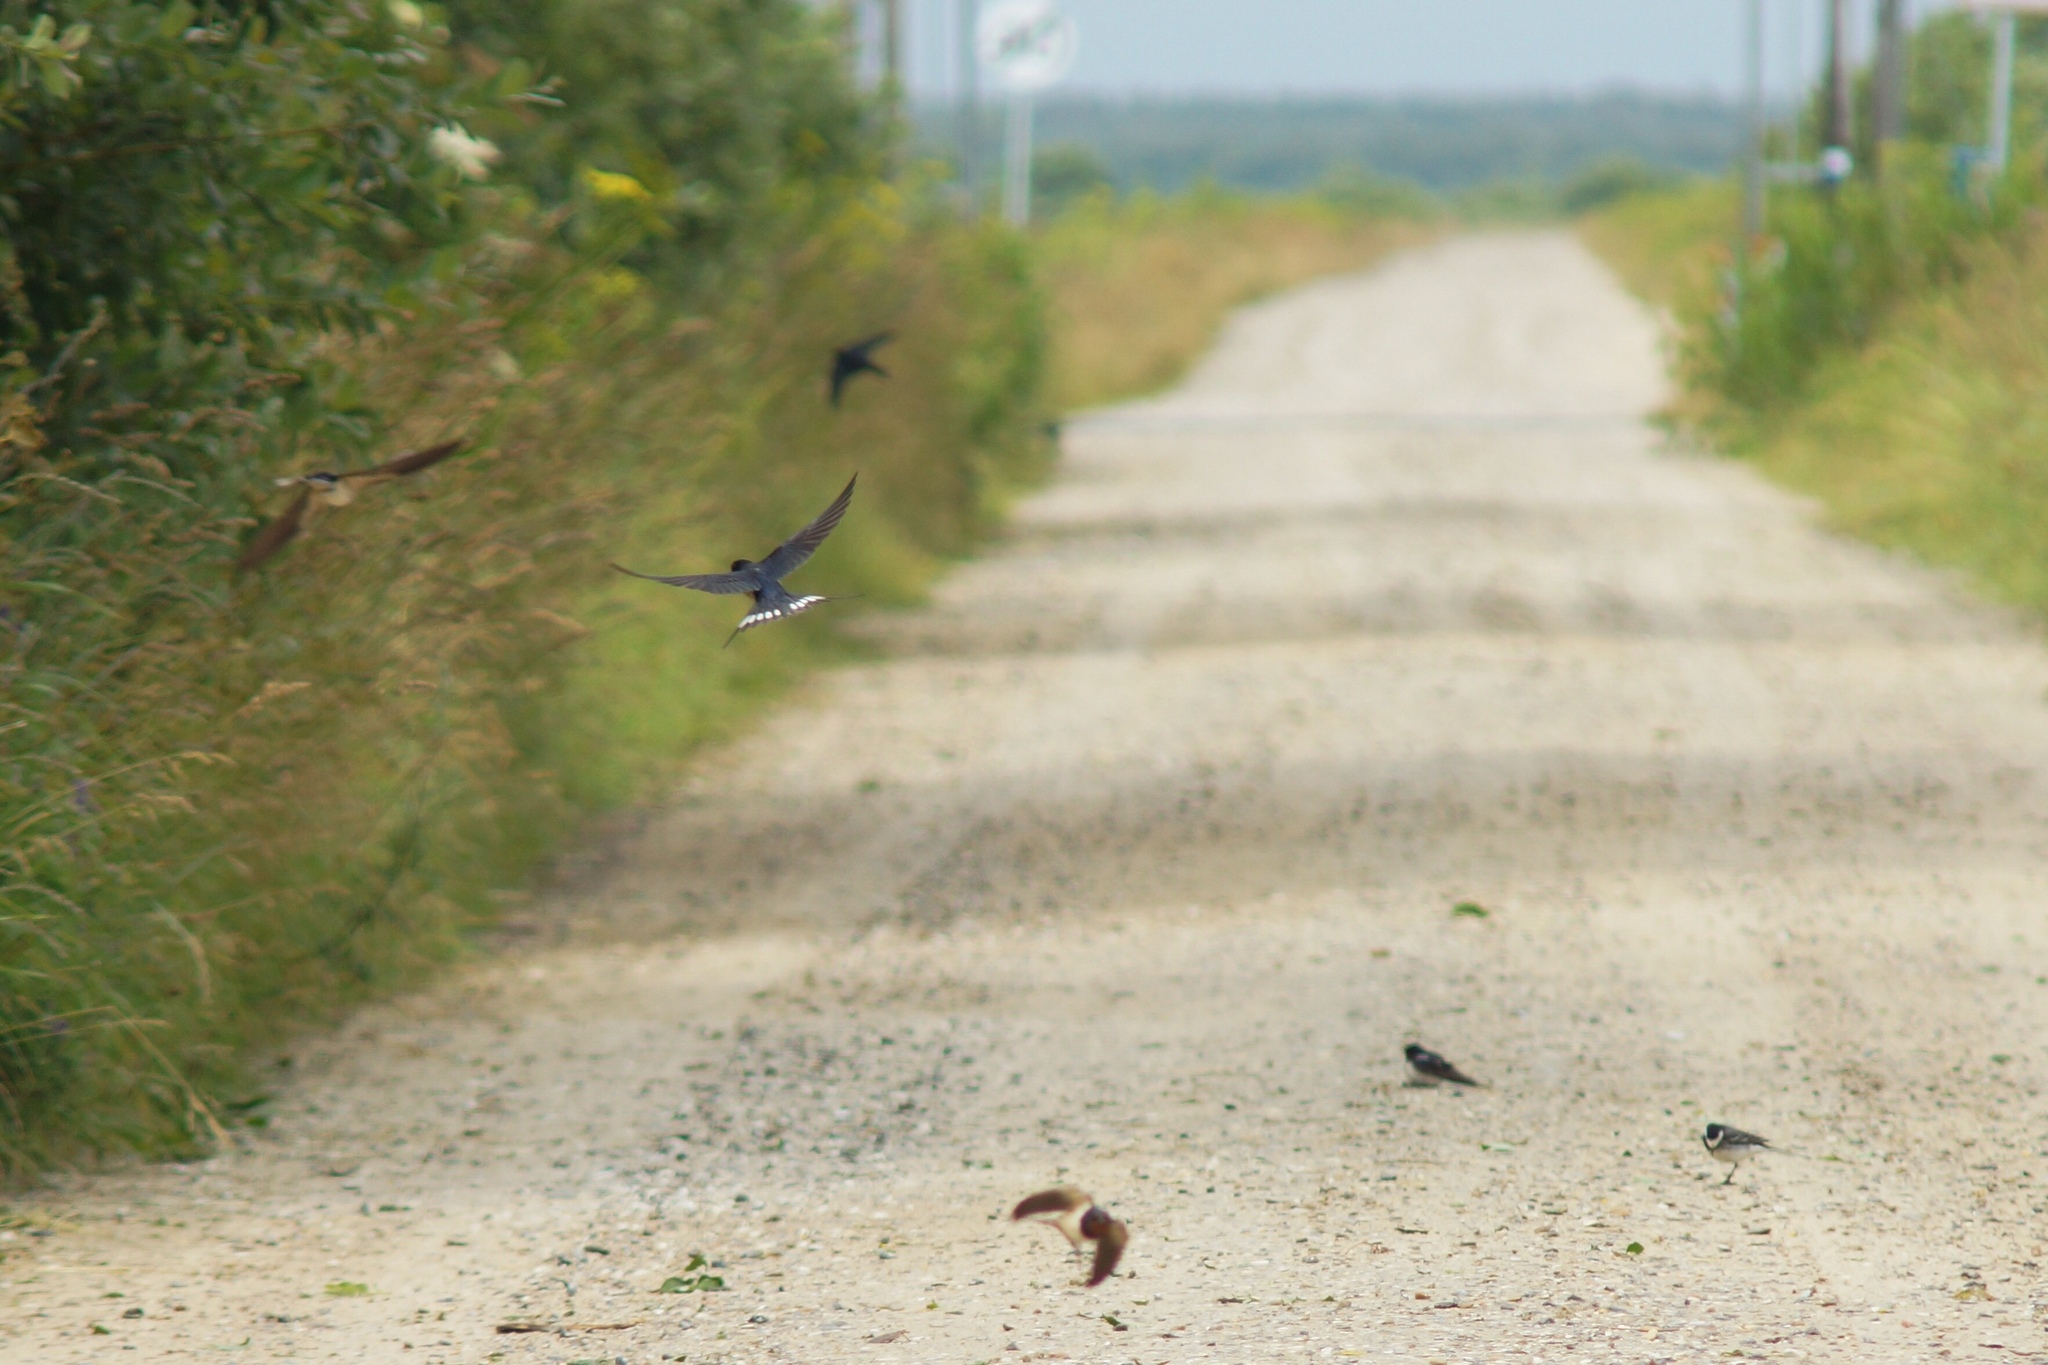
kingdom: Animalia
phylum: Chordata
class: Aves
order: Passeriformes
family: Hirundinidae
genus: Hirundo
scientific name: Hirundo rustica
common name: Barn swallow
